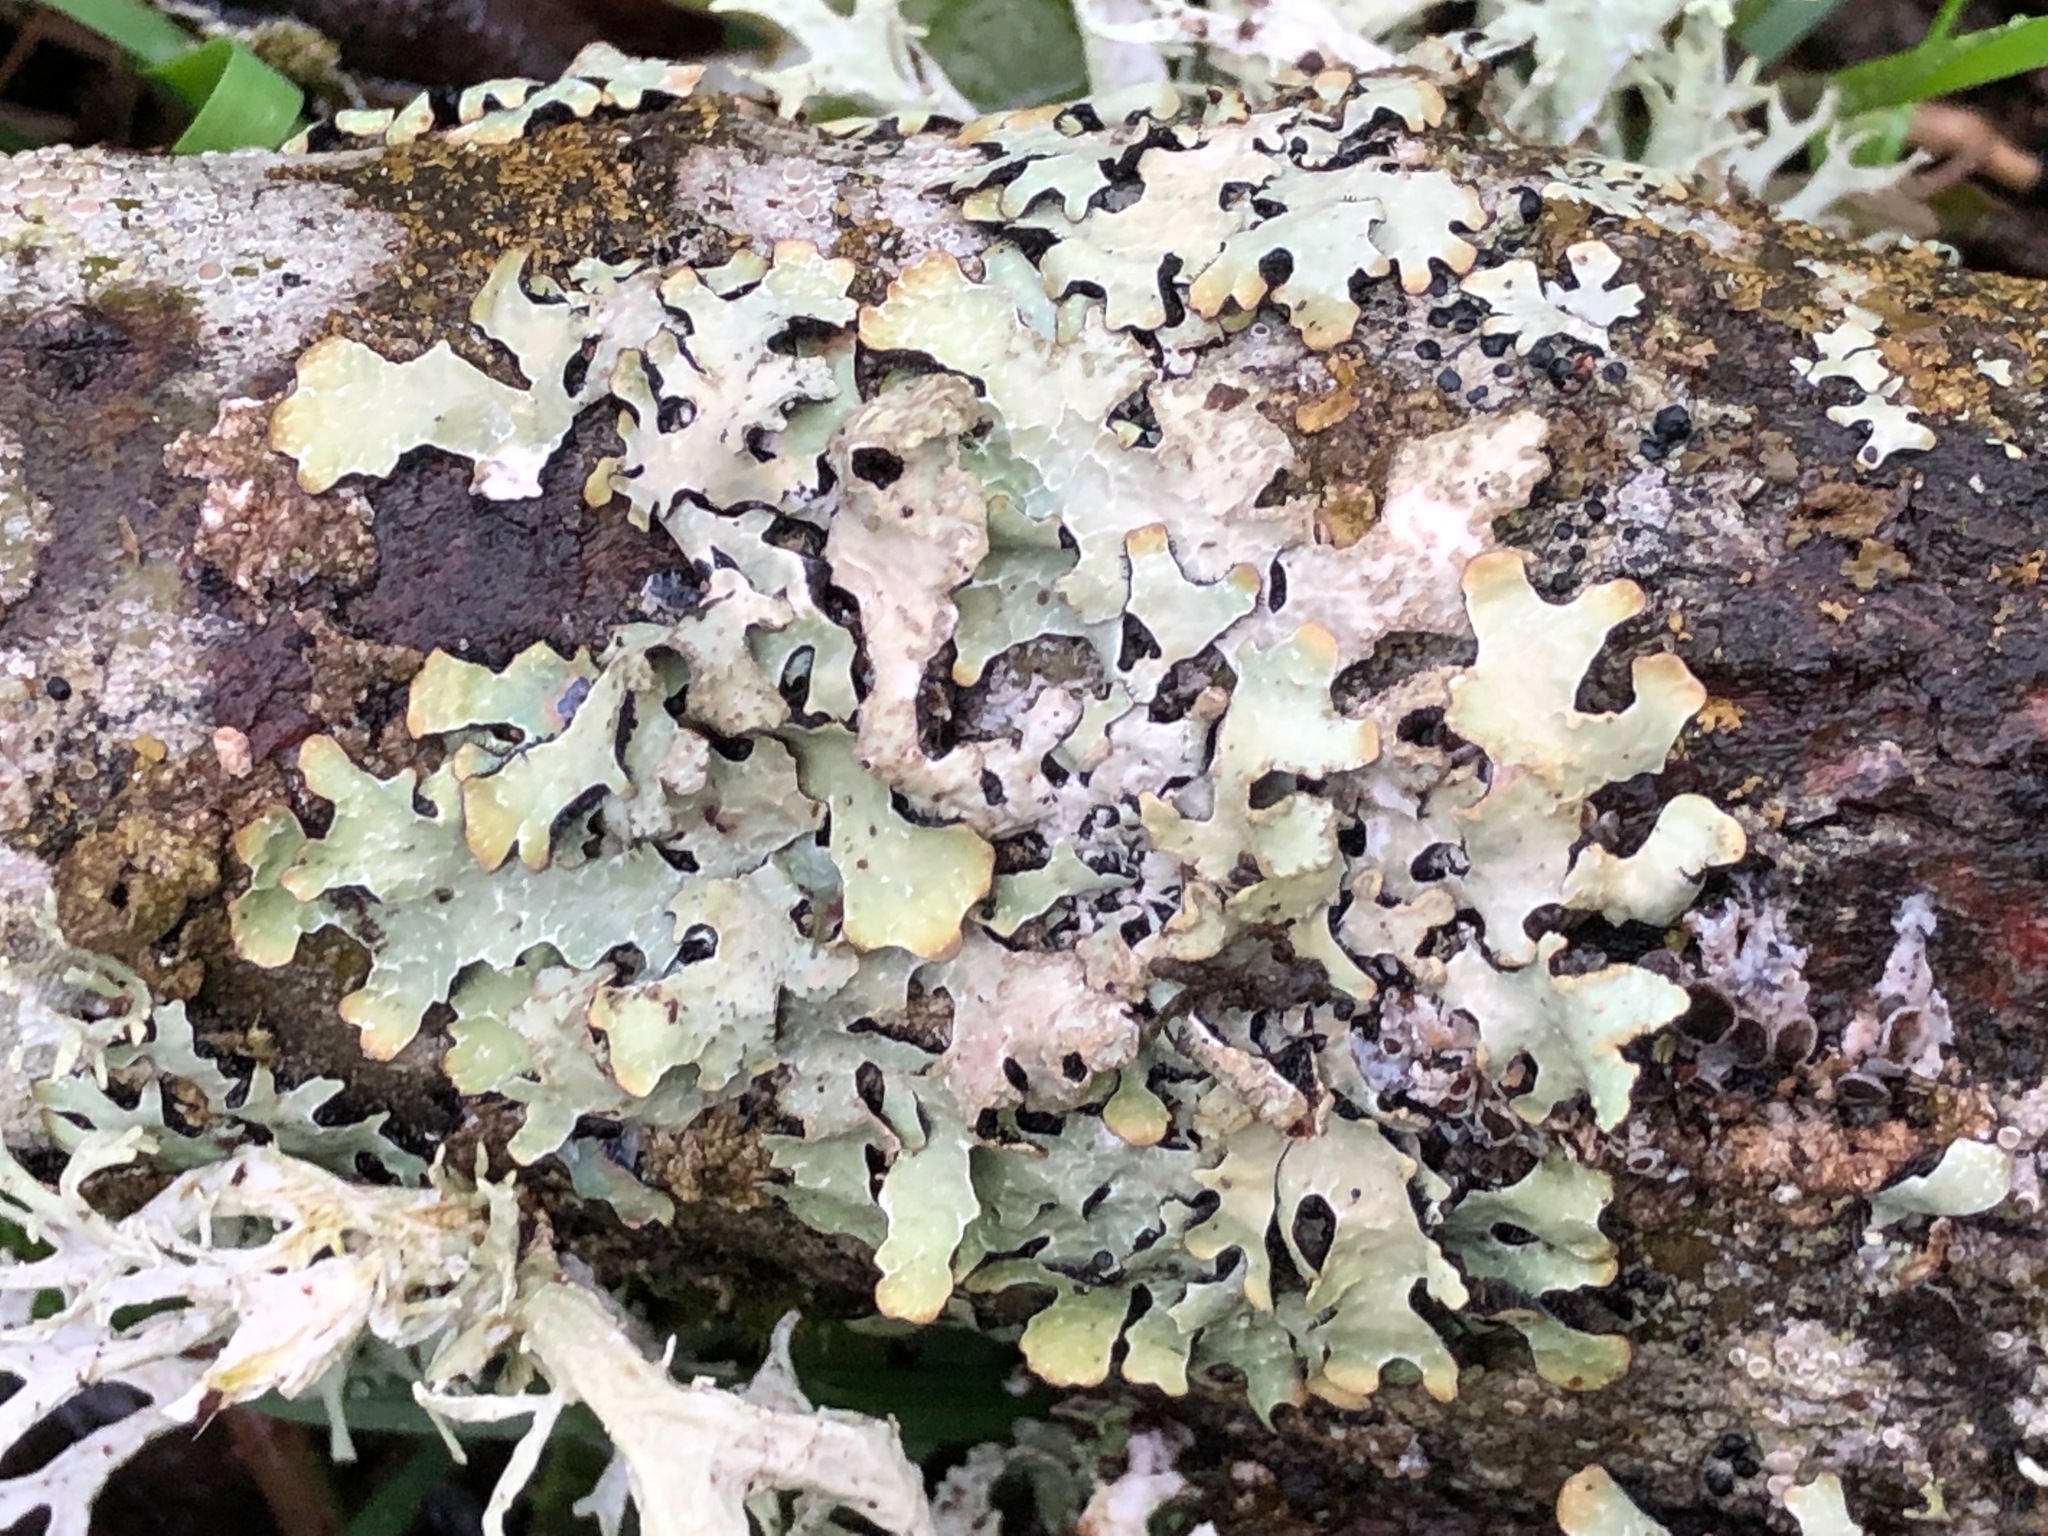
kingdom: Fungi
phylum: Ascomycota
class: Lecanoromycetes
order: Lecanorales
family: Parmeliaceae
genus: Parmelia
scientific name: Parmelia sulcata
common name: Netted shield lichen
